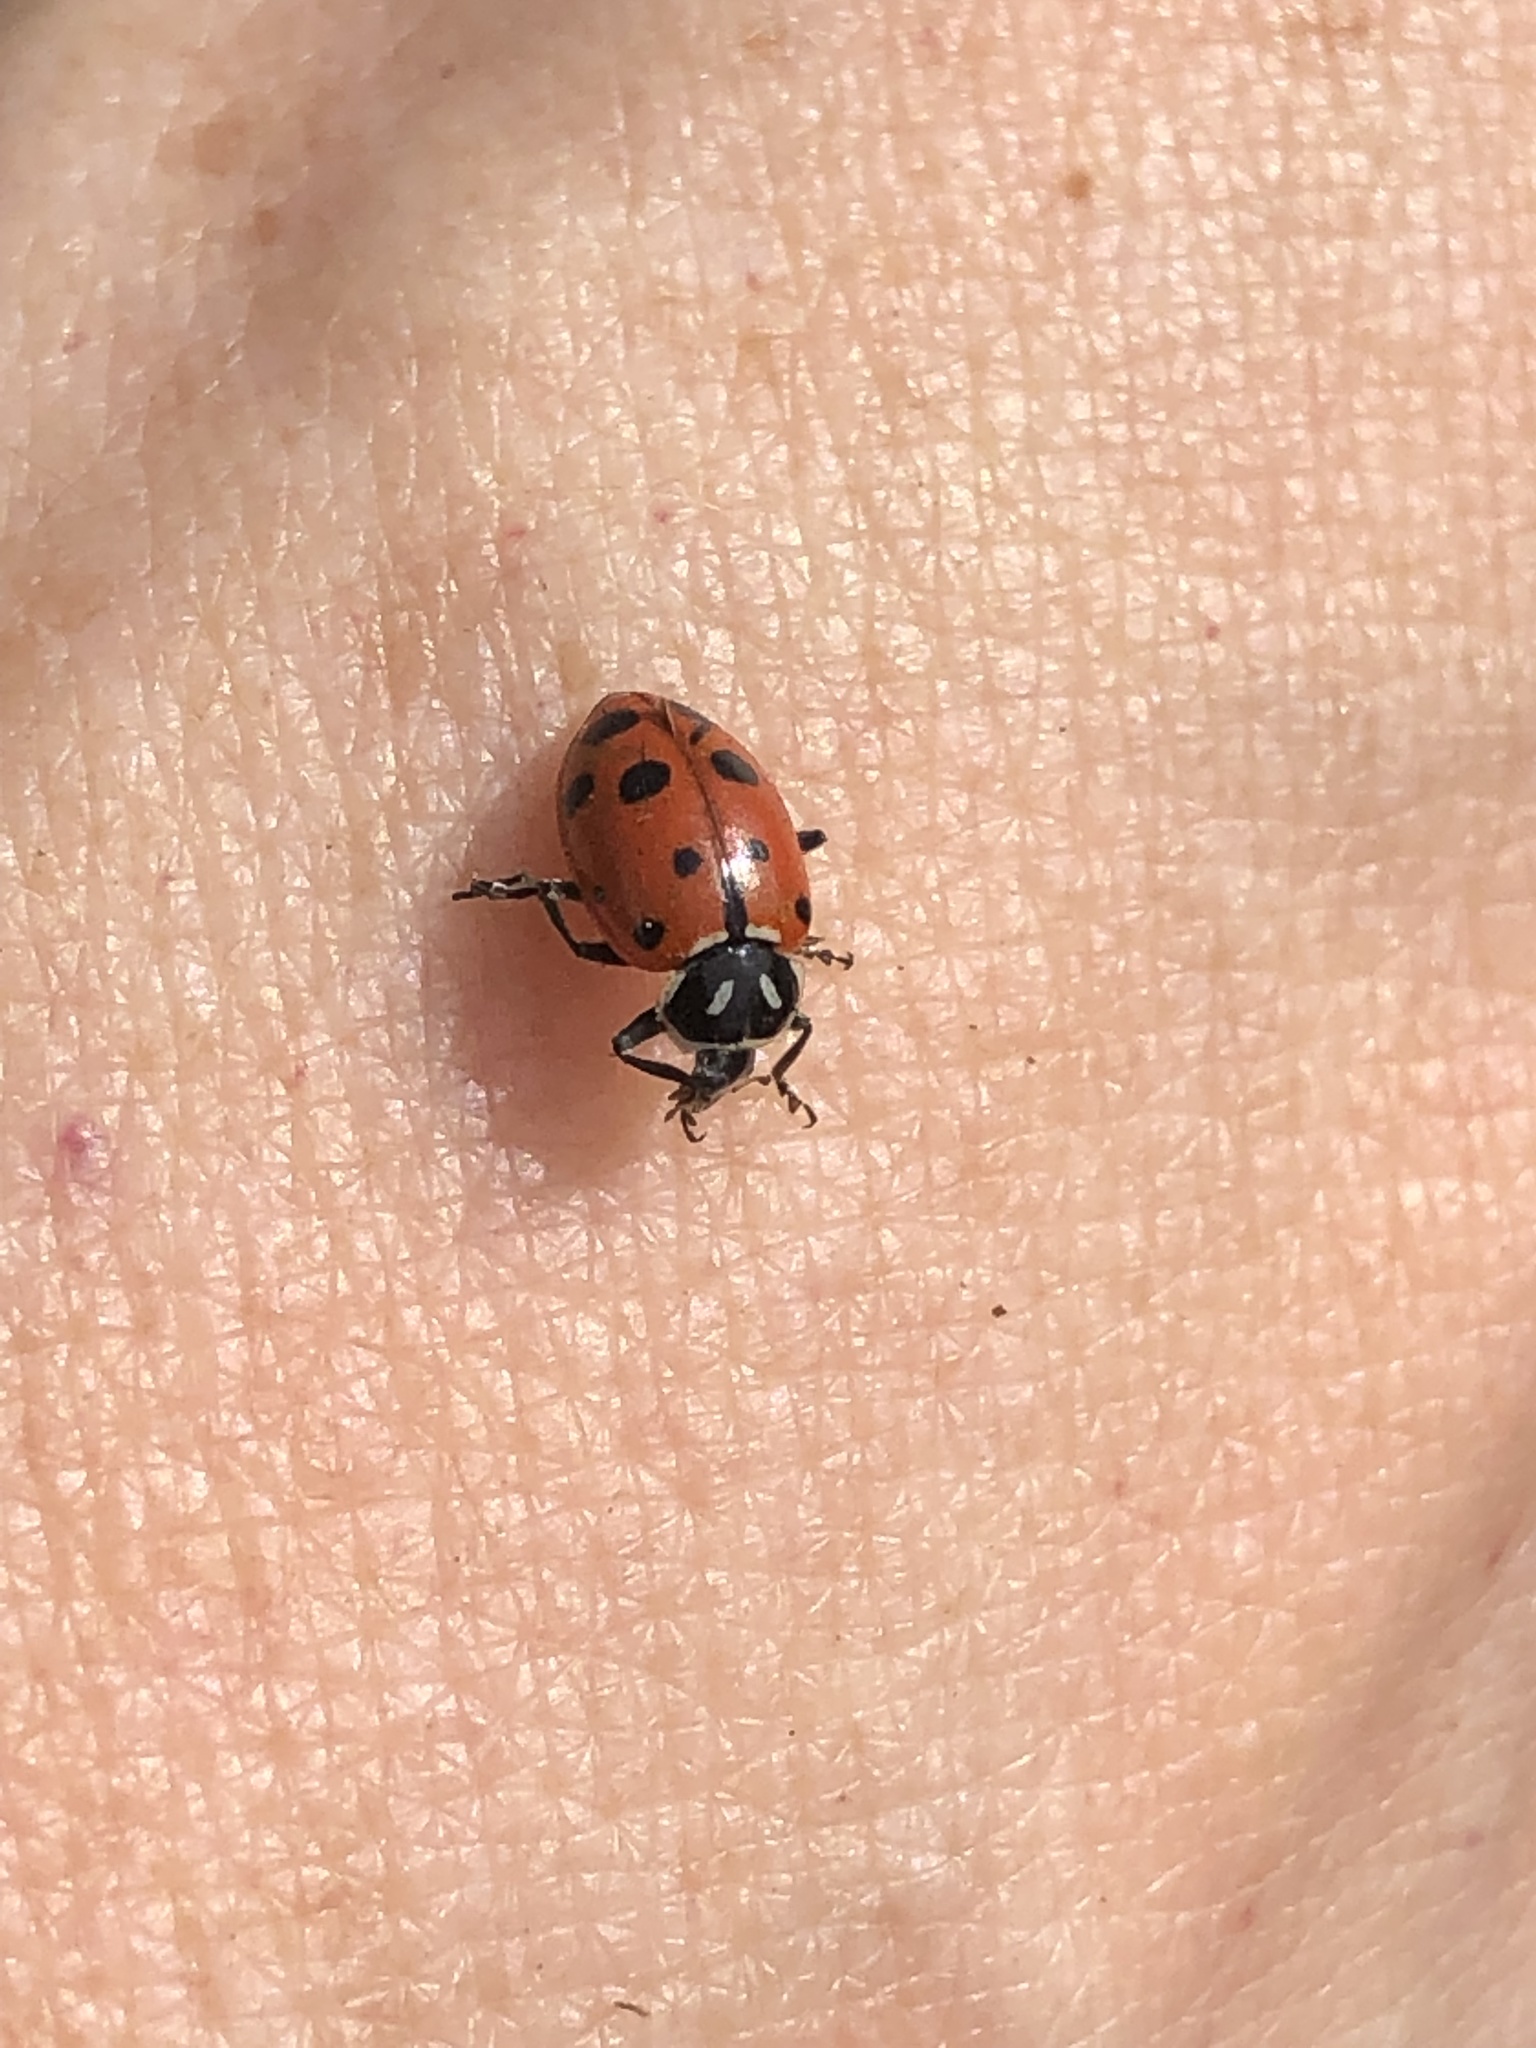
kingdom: Animalia
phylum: Arthropoda
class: Insecta
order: Coleoptera
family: Coccinellidae
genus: Hippodamia
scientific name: Hippodamia convergens
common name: Convergent lady beetle
